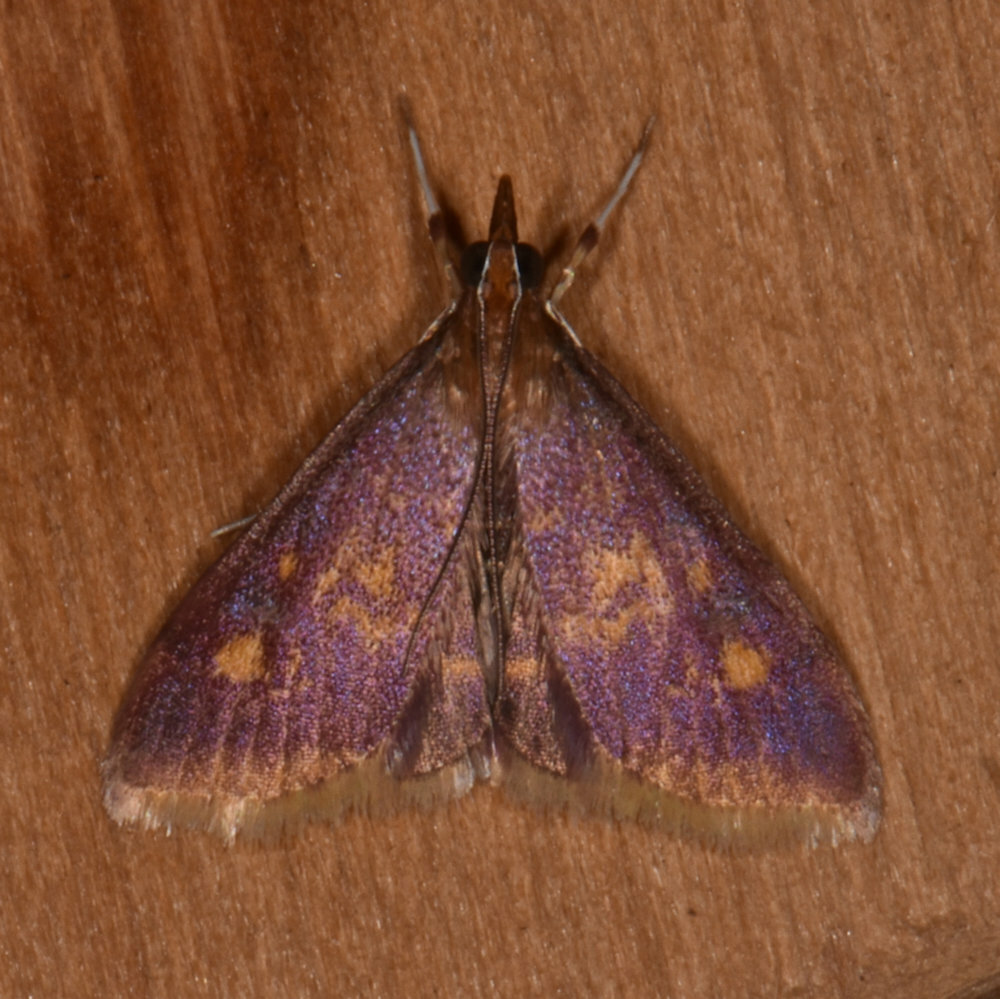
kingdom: Animalia
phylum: Arthropoda
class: Insecta
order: Lepidoptera
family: Crambidae
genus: Pyrausta
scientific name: Pyrausta acrionalis
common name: Mint-loving pyrausta moth
